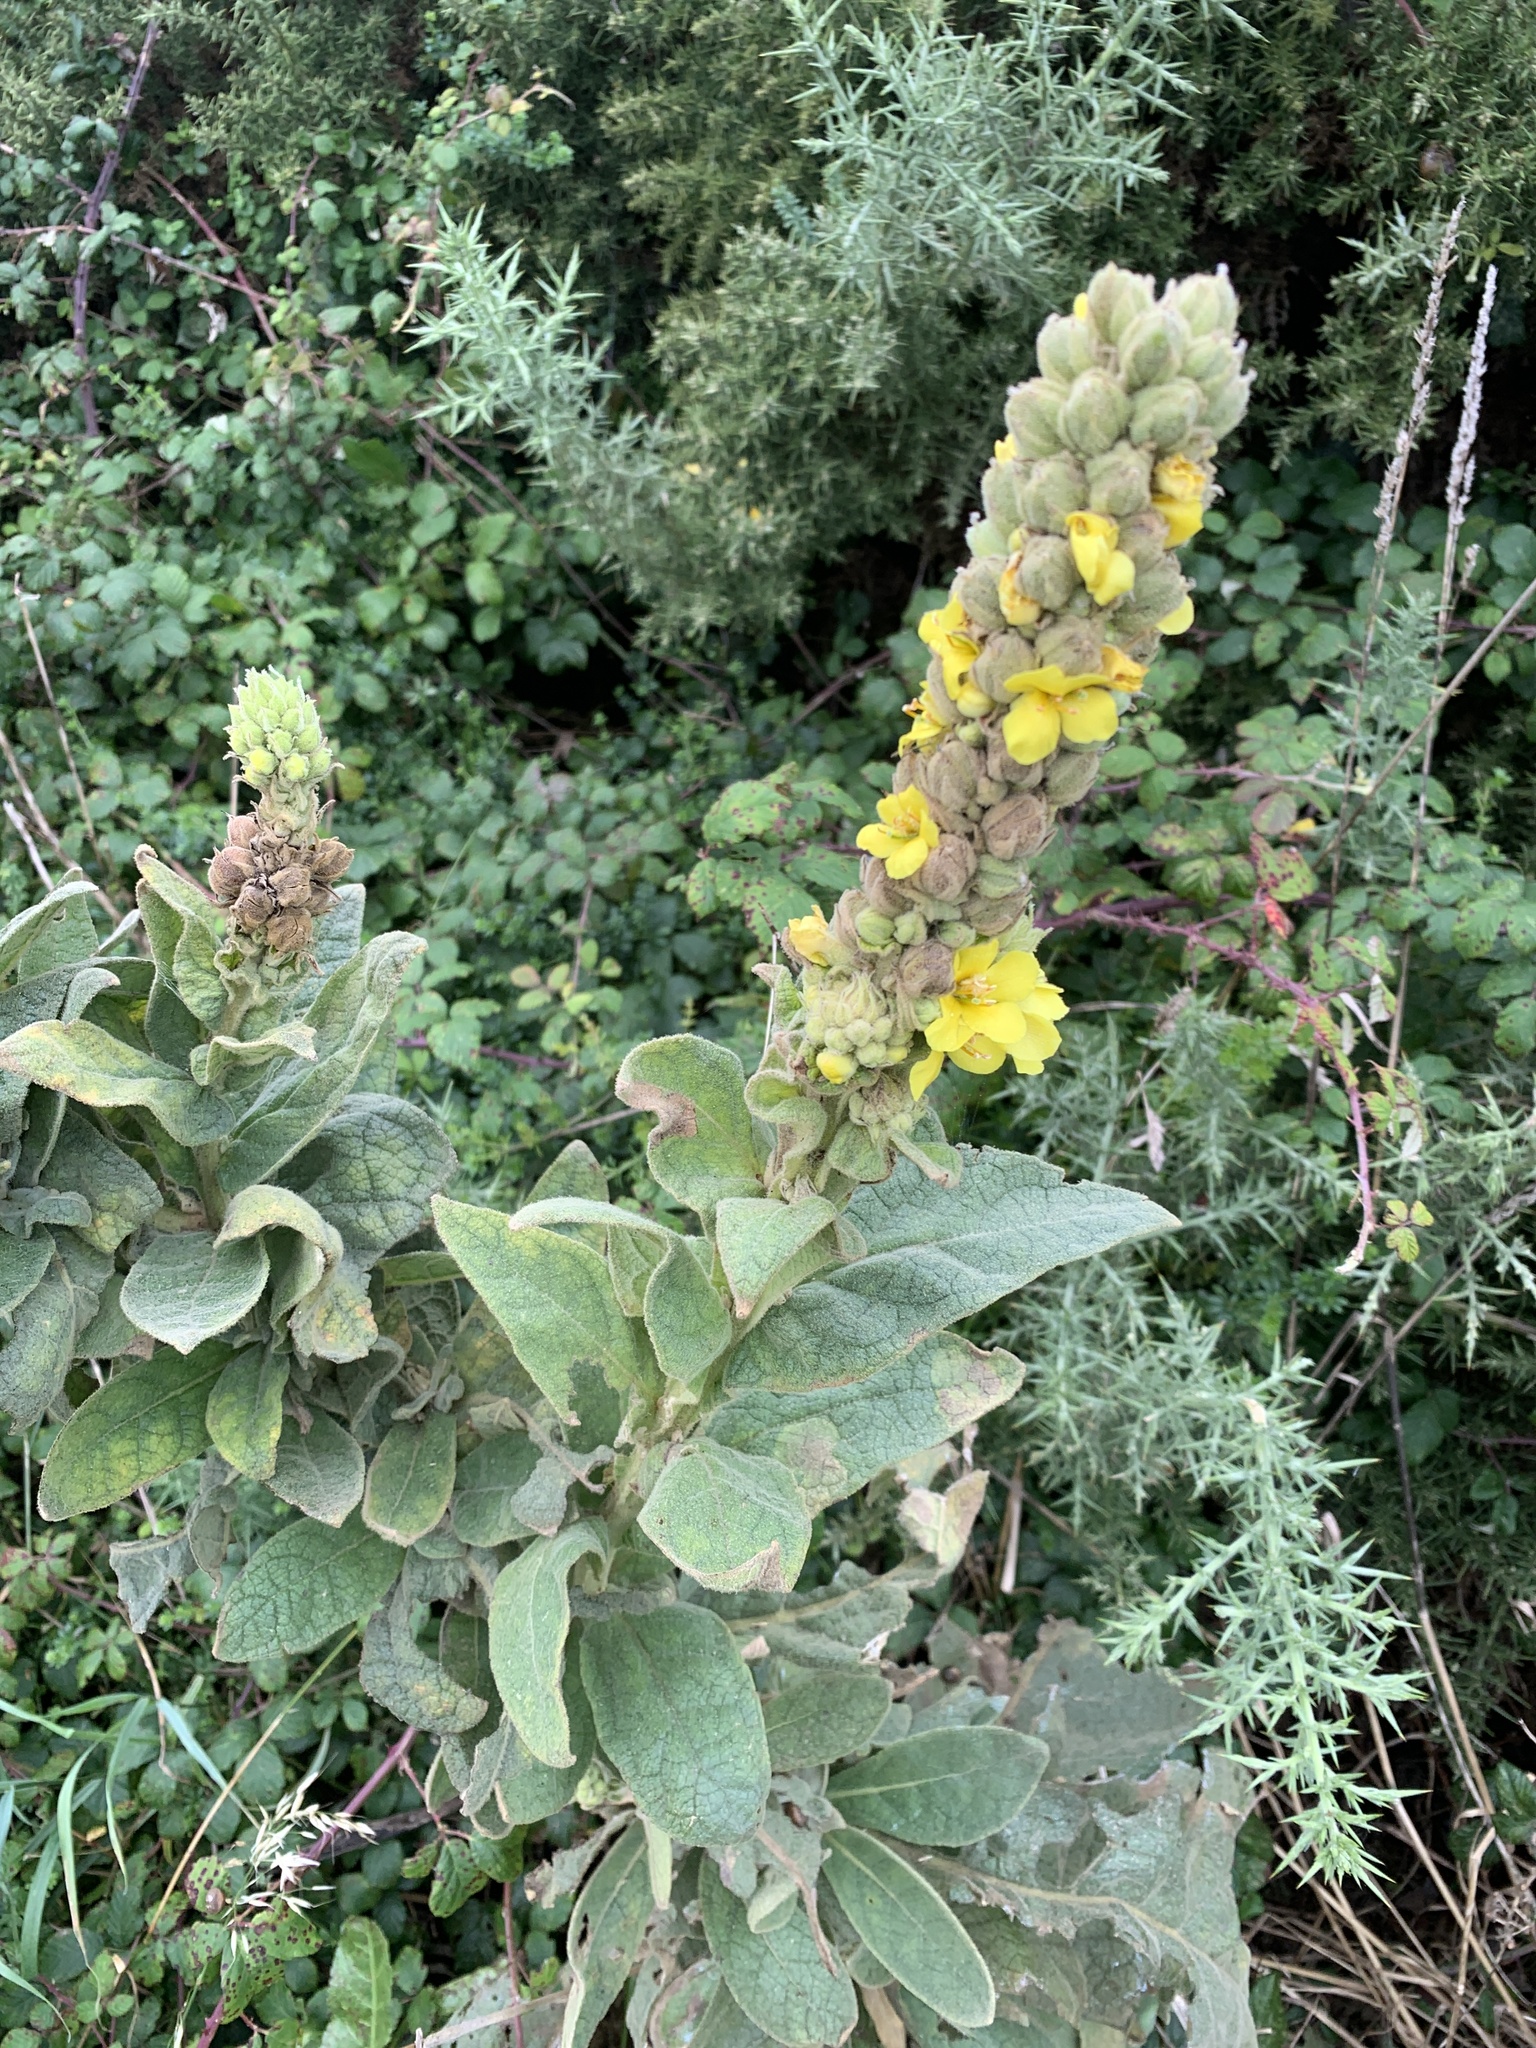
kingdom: Plantae
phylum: Tracheophyta
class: Magnoliopsida
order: Lamiales
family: Scrophulariaceae
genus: Verbascum
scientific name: Verbascum thapsus
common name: Common mullein
